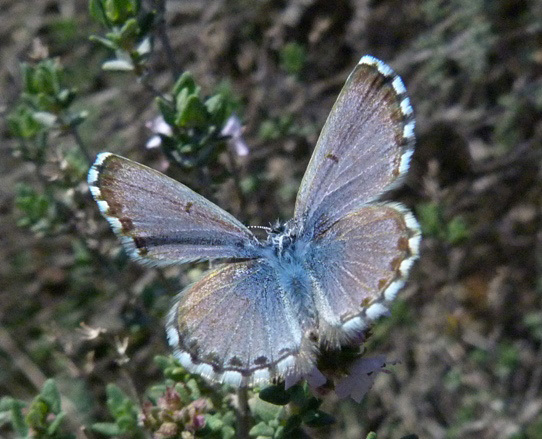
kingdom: Animalia
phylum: Arthropoda
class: Insecta
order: Lepidoptera
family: Lycaenidae
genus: Pseudophilotes
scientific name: Pseudophilotes baton
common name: Baton blue
